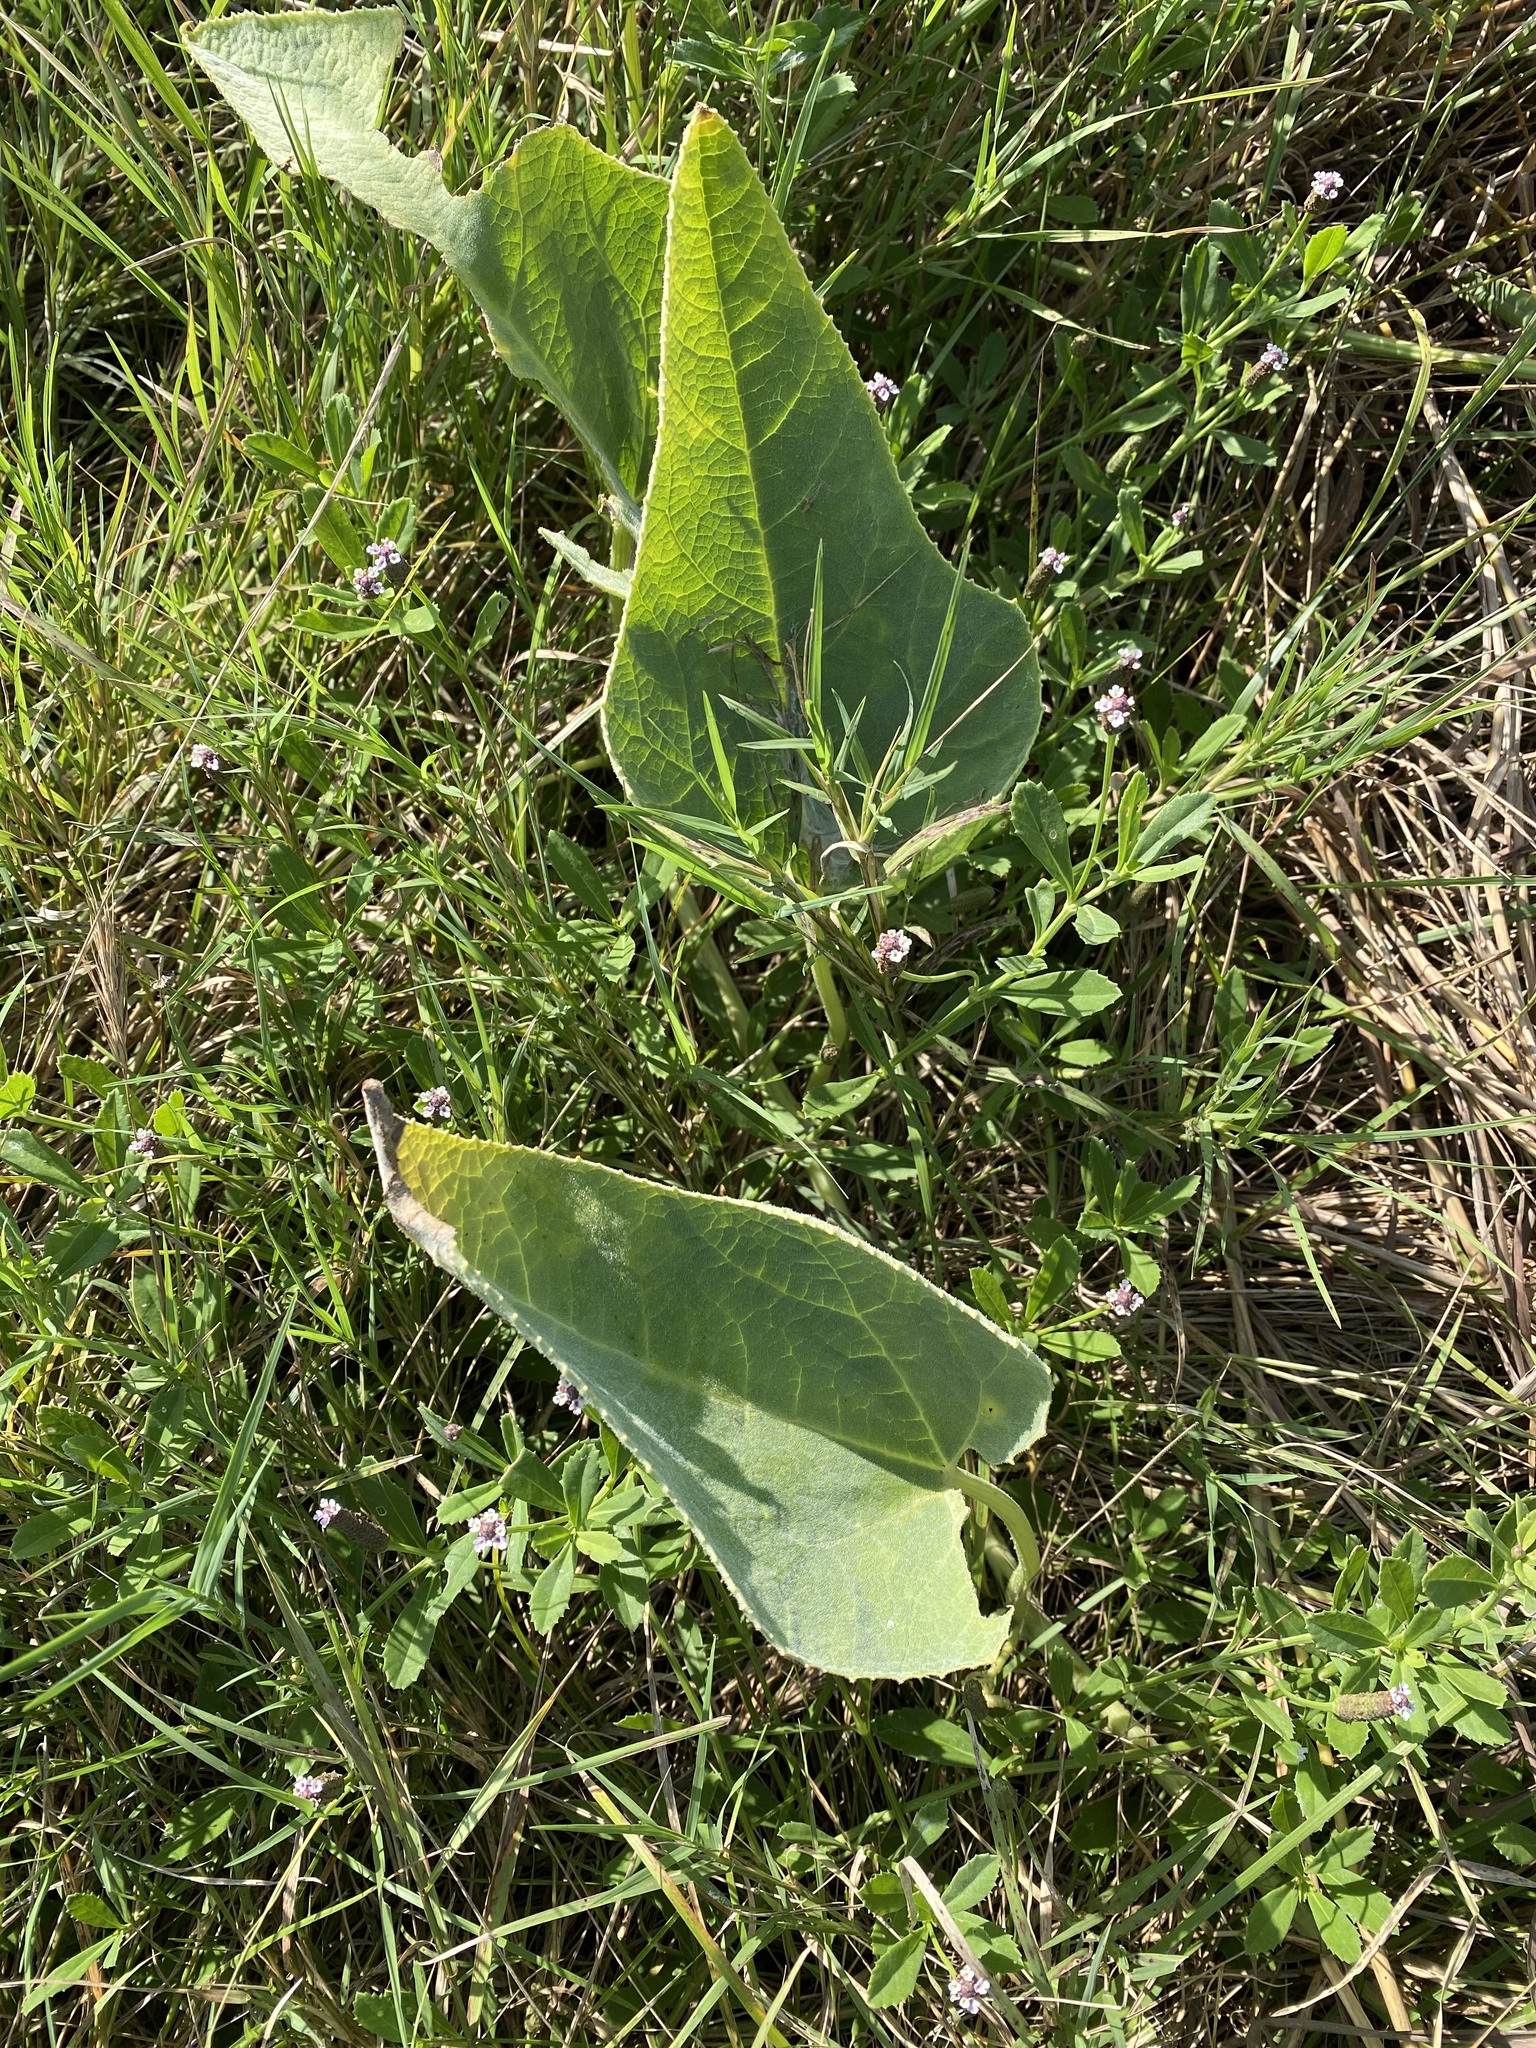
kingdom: Plantae
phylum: Tracheophyta
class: Magnoliopsida
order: Cucurbitales
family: Cucurbitaceae
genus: Cucurbita
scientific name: Cucurbita foetidissima
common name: Buffalo gourd
